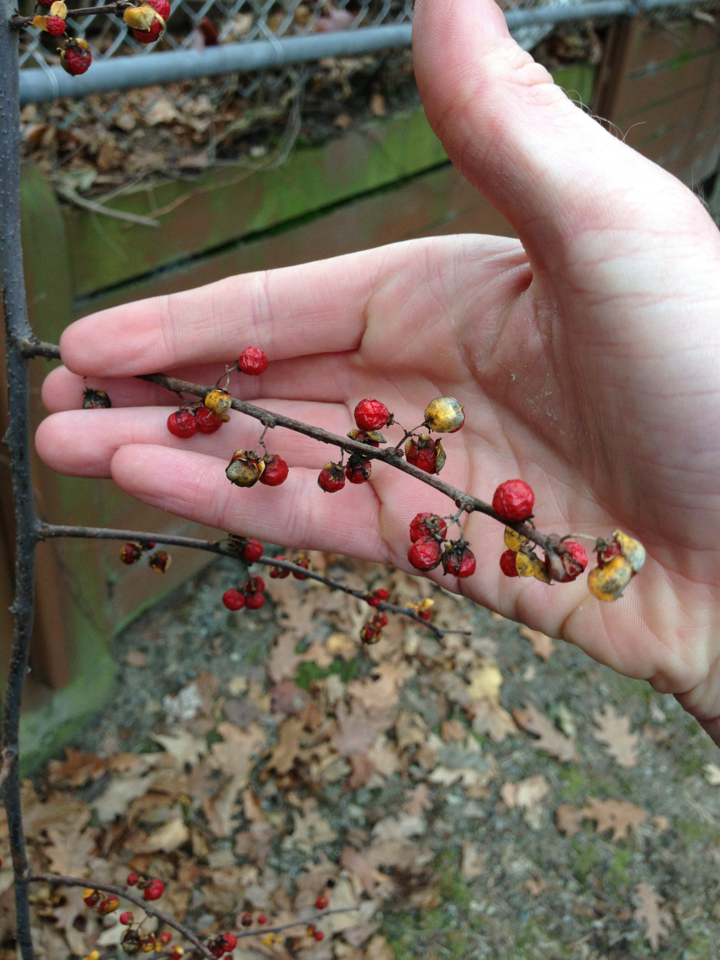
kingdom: Plantae
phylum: Tracheophyta
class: Magnoliopsida
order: Celastrales
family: Celastraceae
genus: Celastrus
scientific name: Celastrus orbiculatus
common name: Oriental bittersweet
